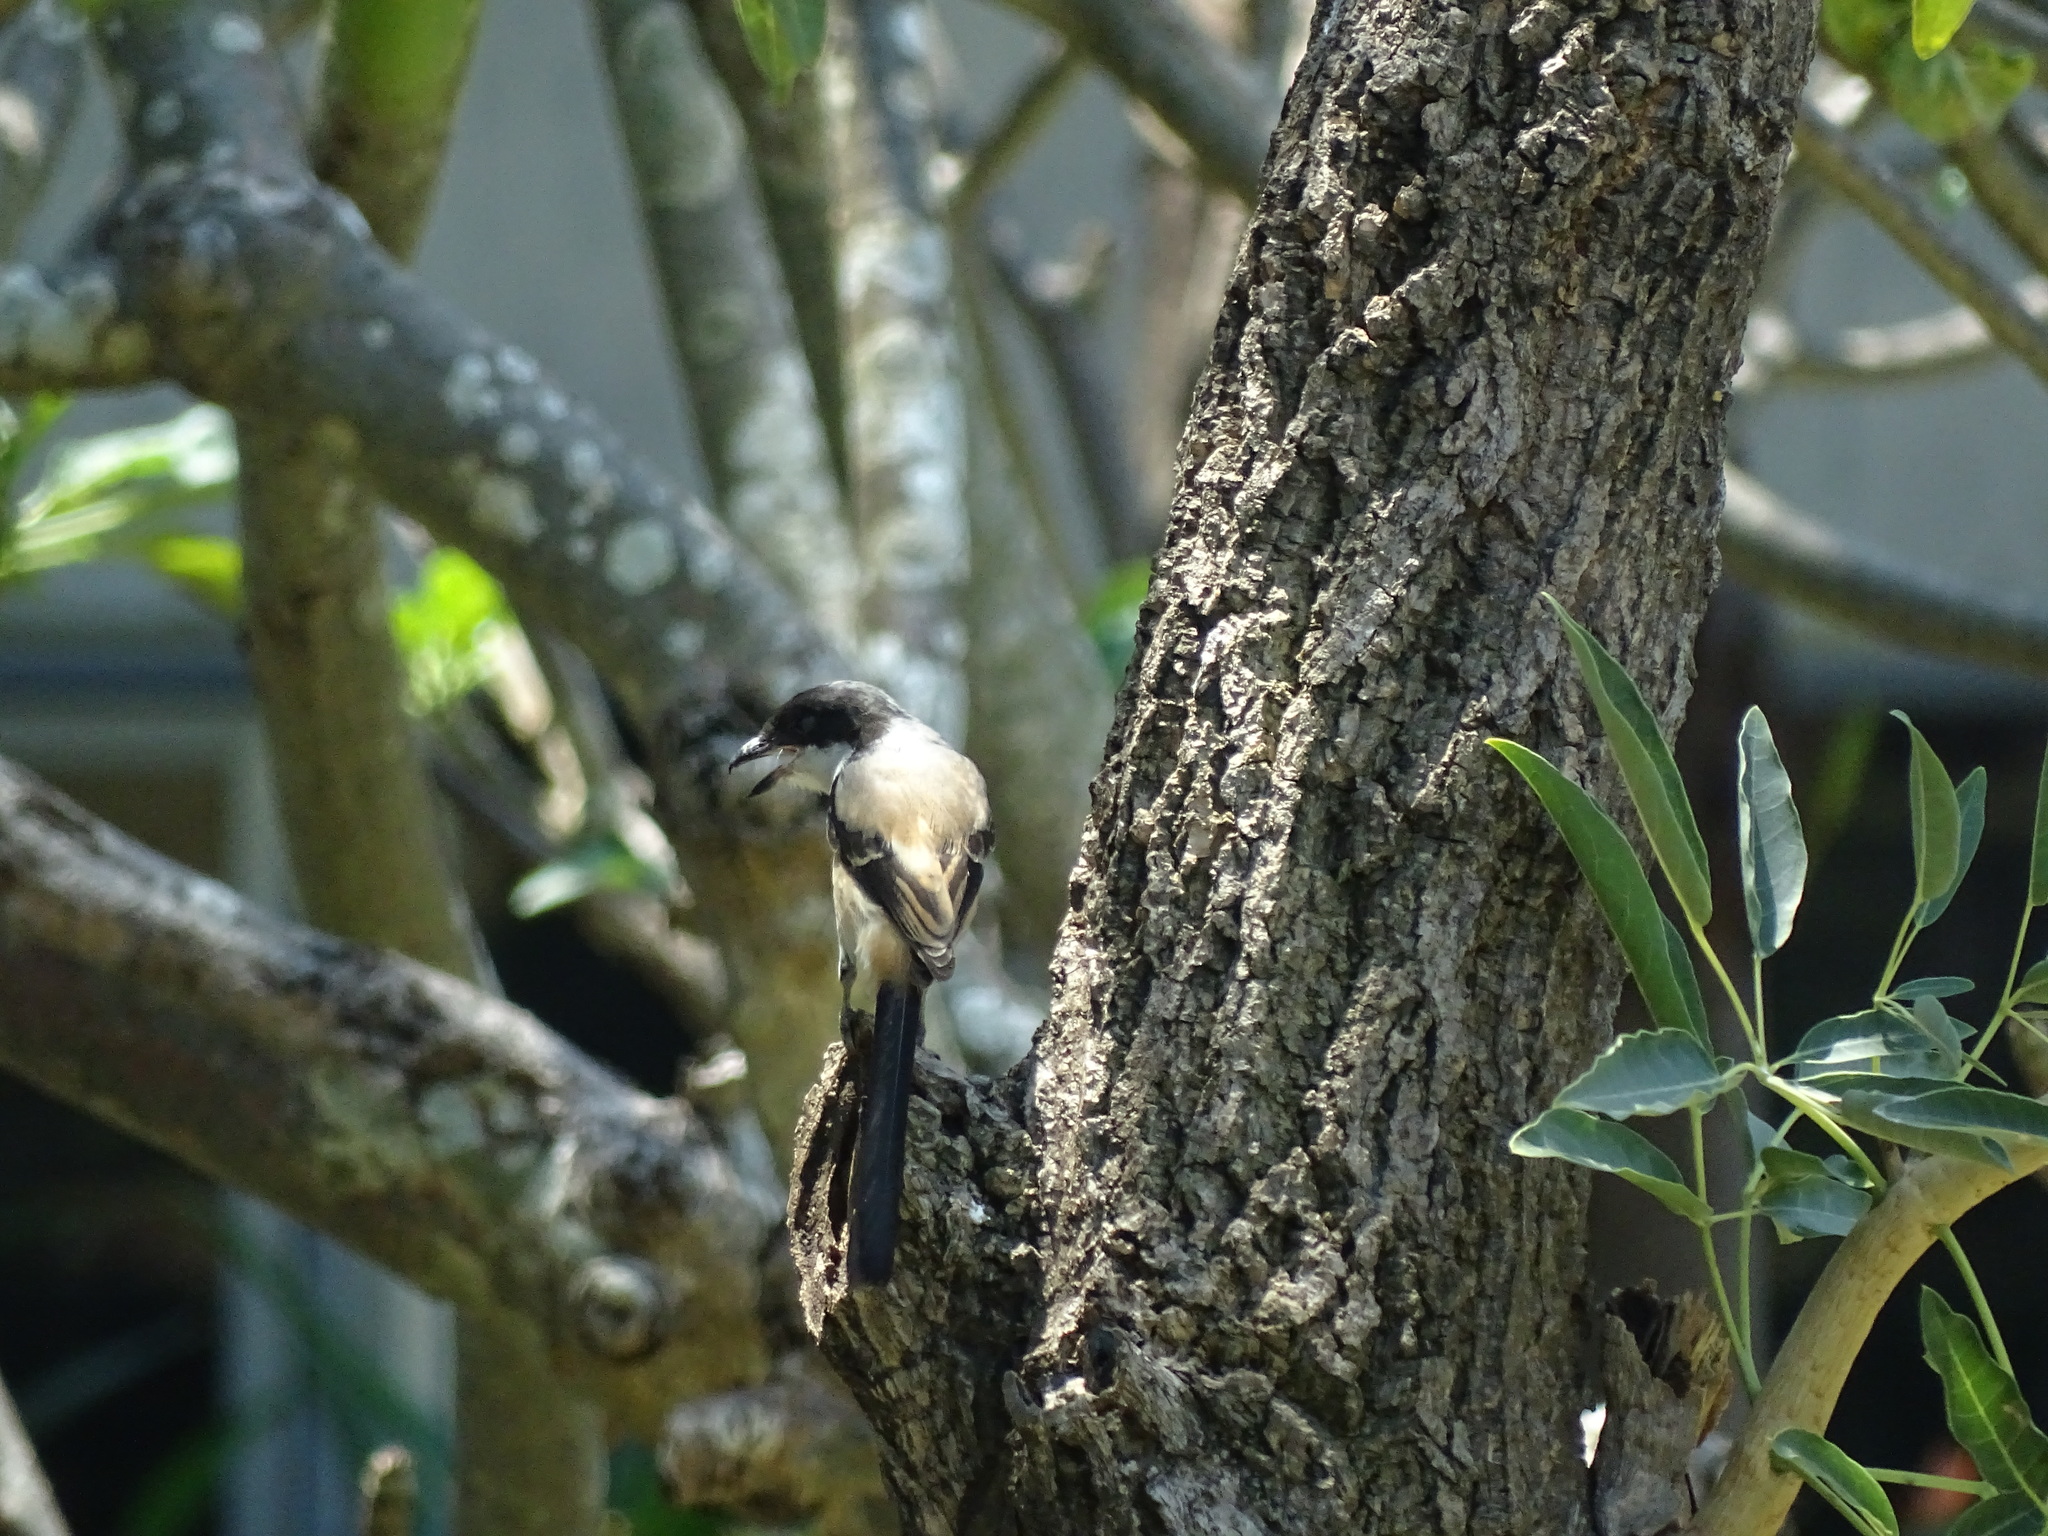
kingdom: Animalia
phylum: Chordata
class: Aves
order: Passeriformes
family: Laniidae
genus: Lanius
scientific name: Lanius schach
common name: Long-tailed shrike
